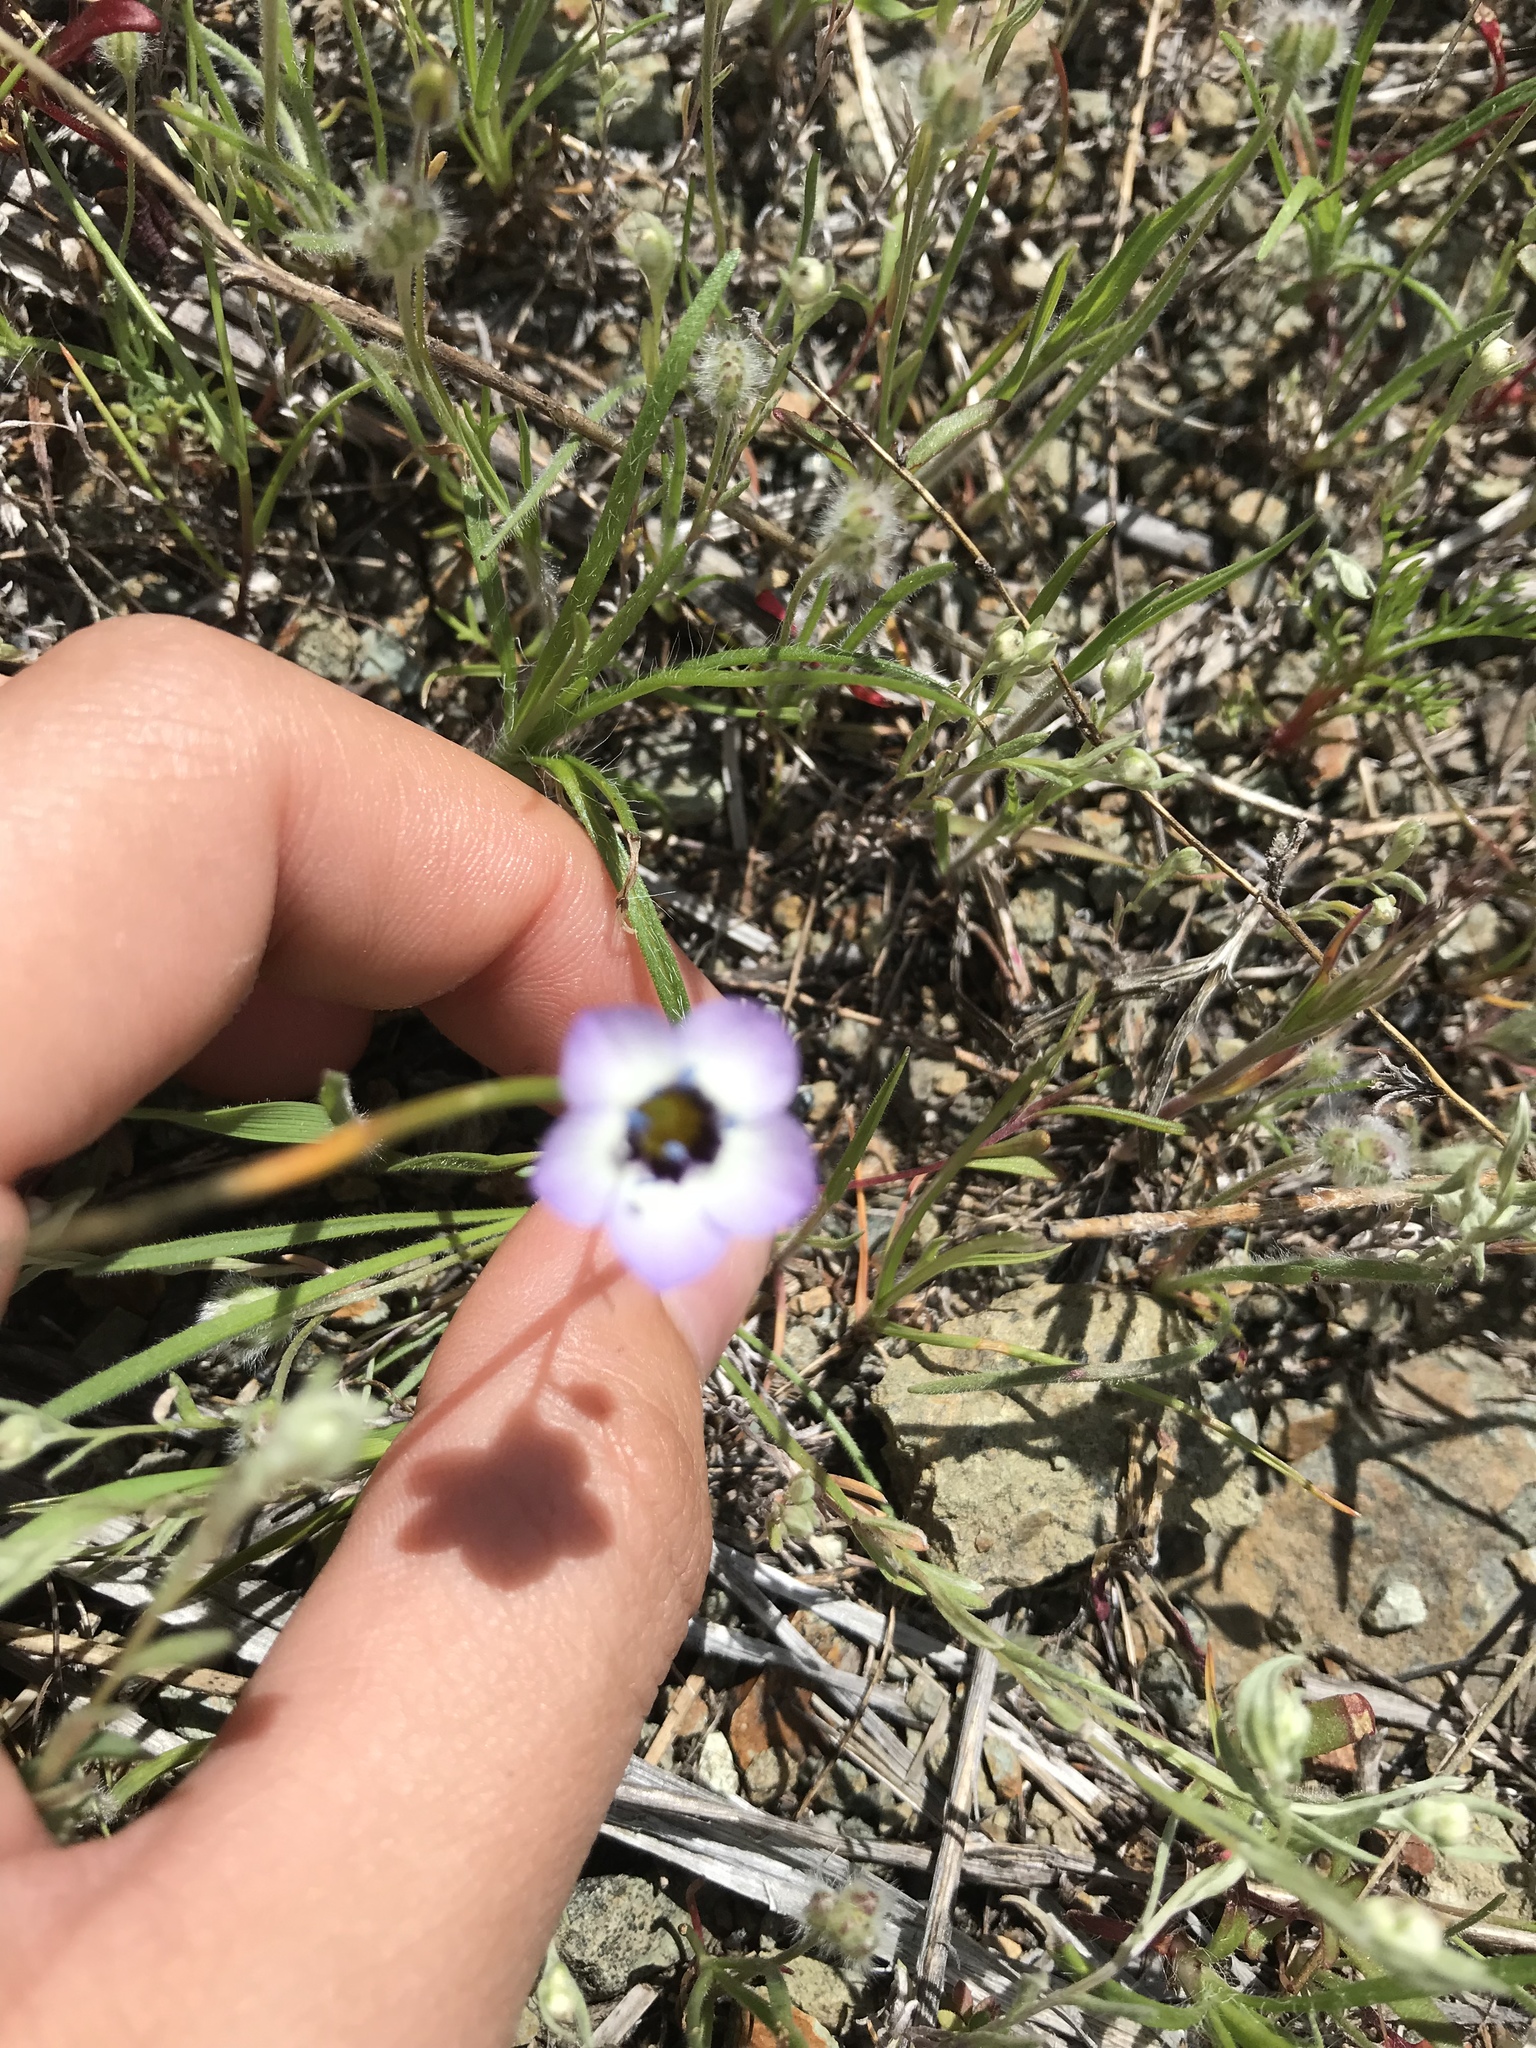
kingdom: Plantae
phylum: Tracheophyta
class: Magnoliopsida
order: Ericales
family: Polemoniaceae
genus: Gilia
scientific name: Gilia tricolor
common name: Bird's-eyes
